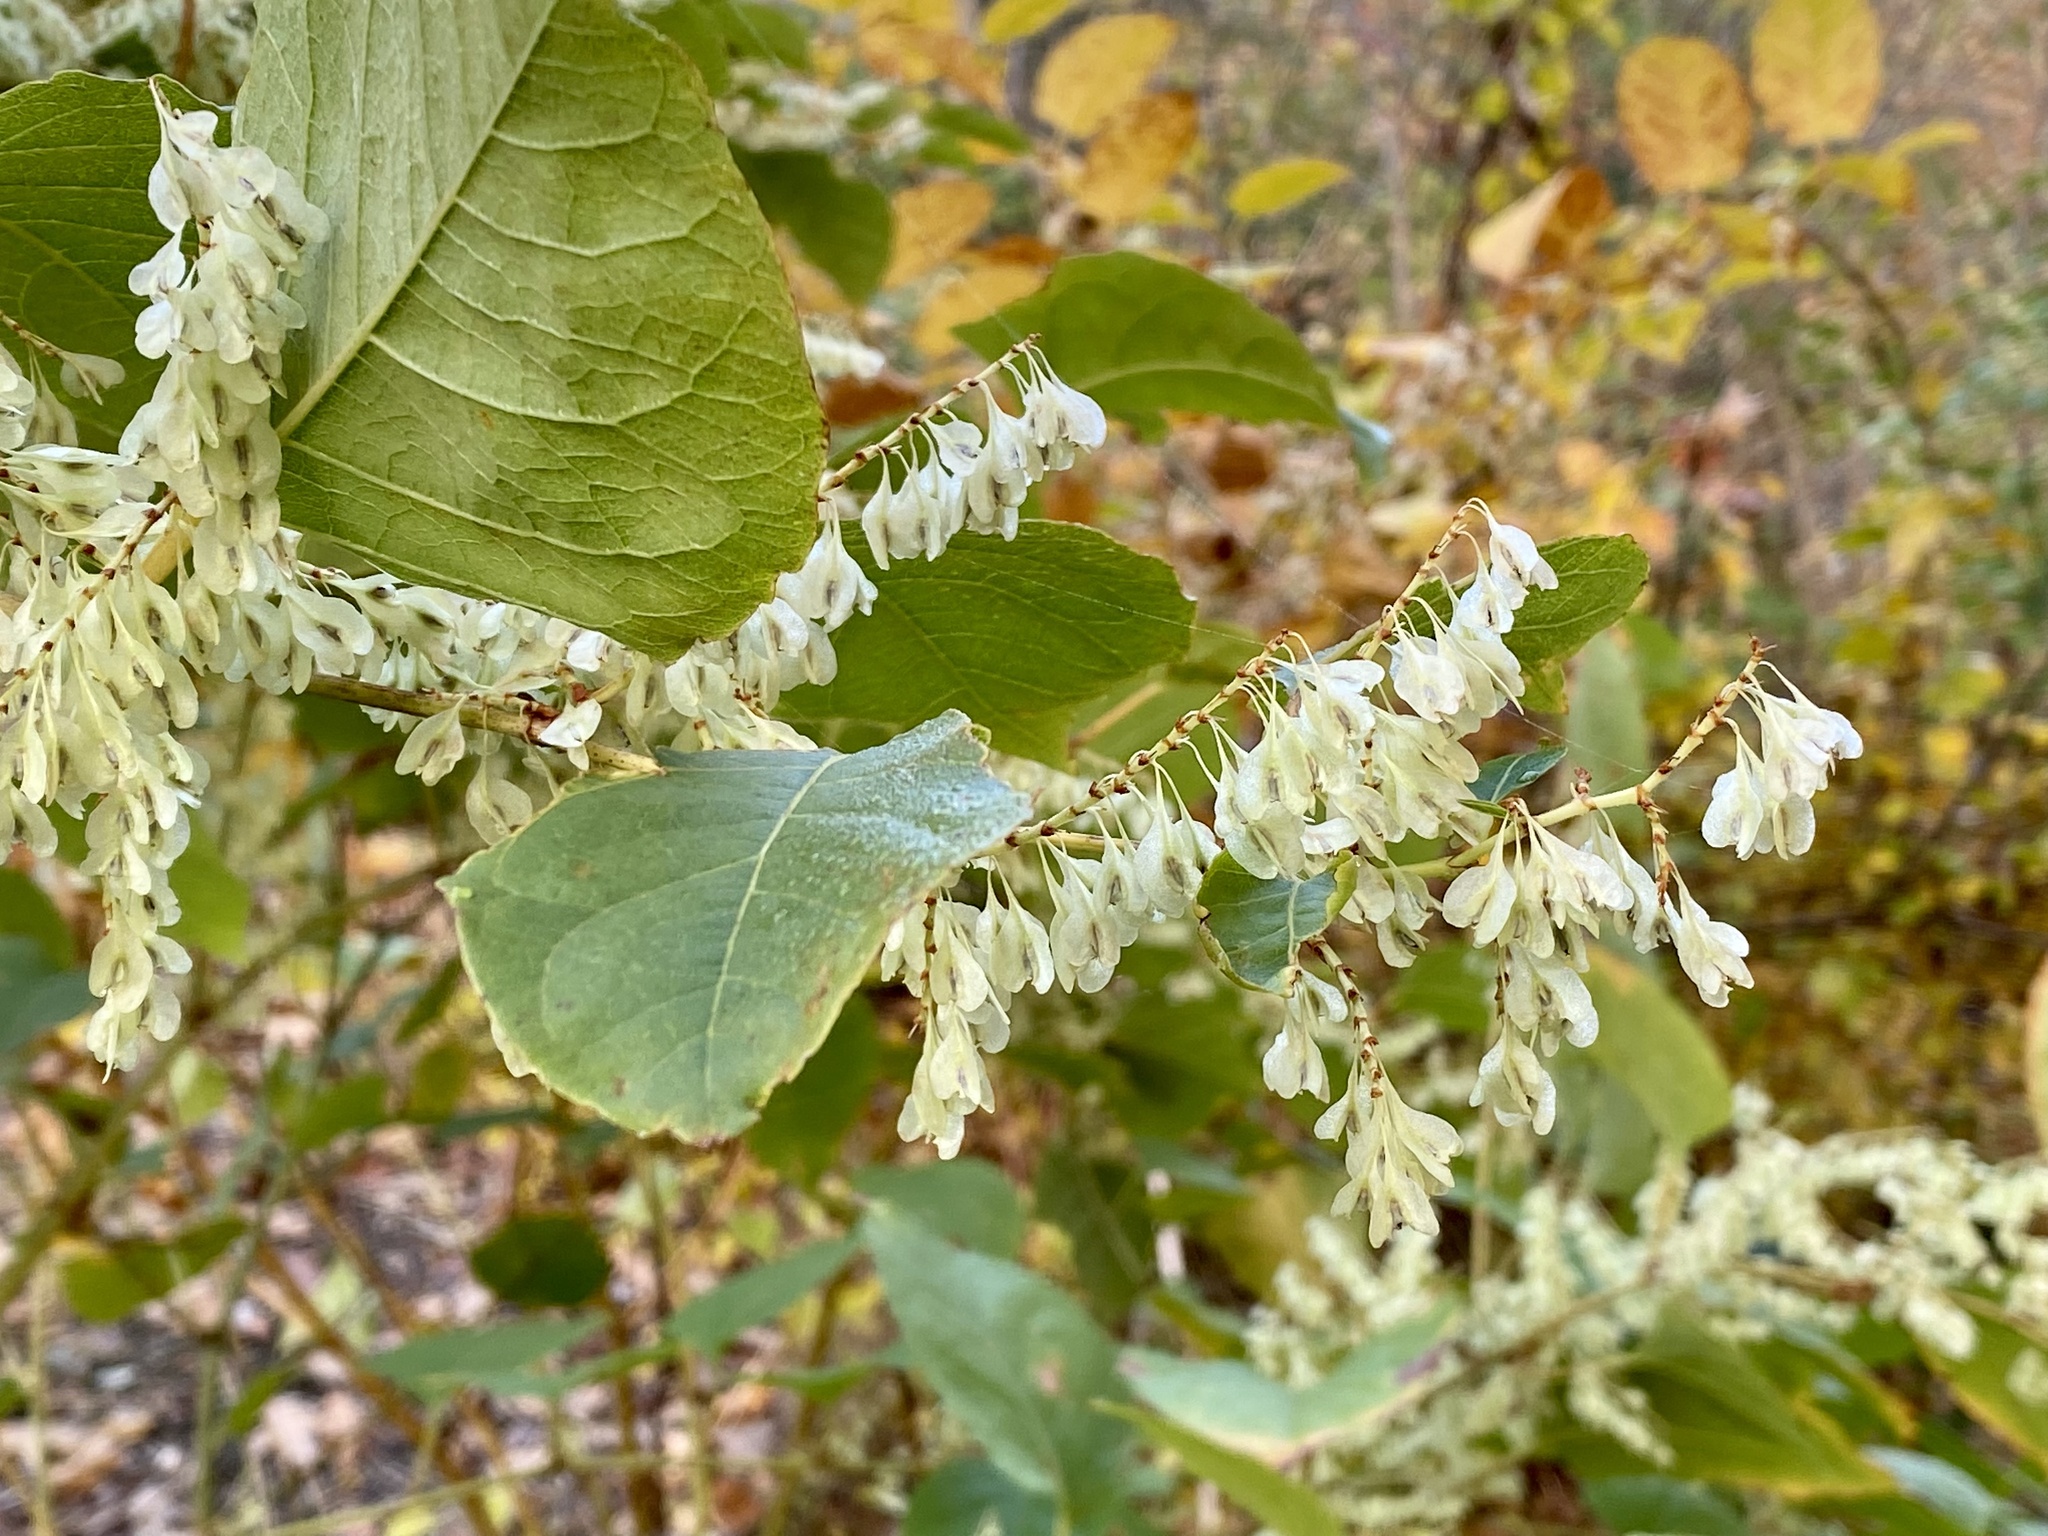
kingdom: Plantae
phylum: Tracheophyta
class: Magnoliopsida
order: Caryophyllales
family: Polygonaceae
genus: Reynoutria
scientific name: Reynoutria japonica
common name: Japanese knotweed
